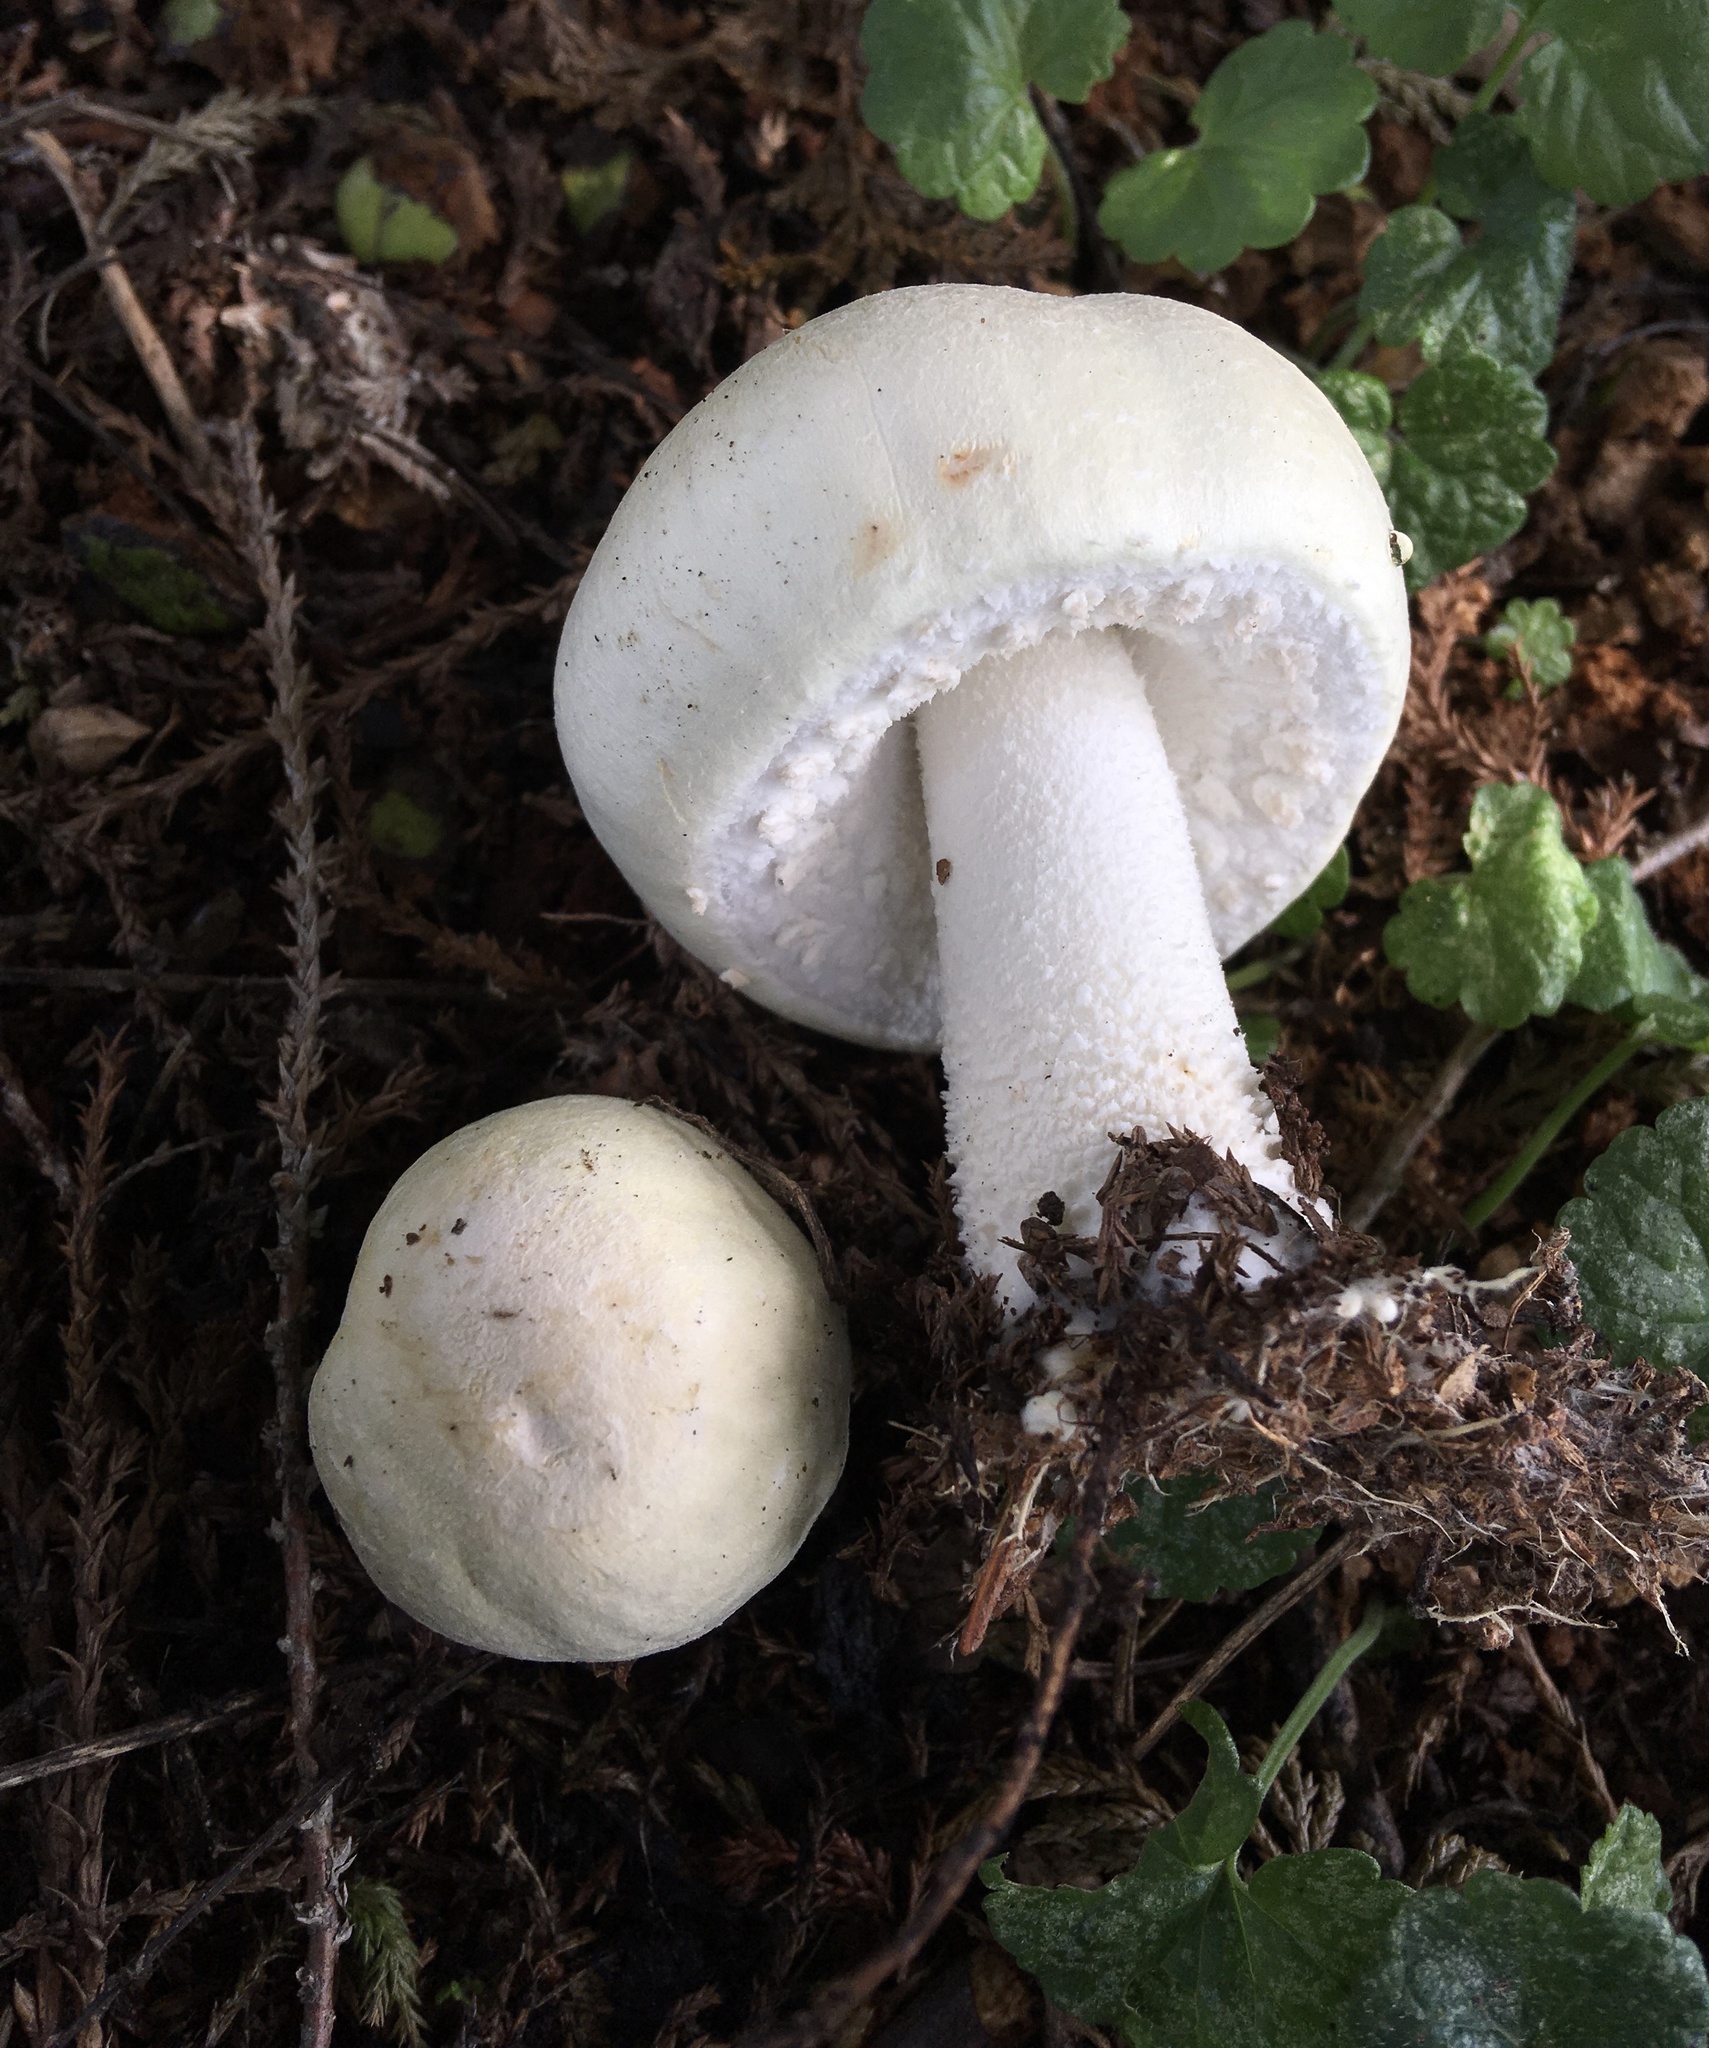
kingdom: Fungi
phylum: Basidiomycota
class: Agaricomycetes
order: Agaricales
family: Agaricaceae
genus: Agaricus
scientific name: Agaricus arvensis
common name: Horse mushroom
